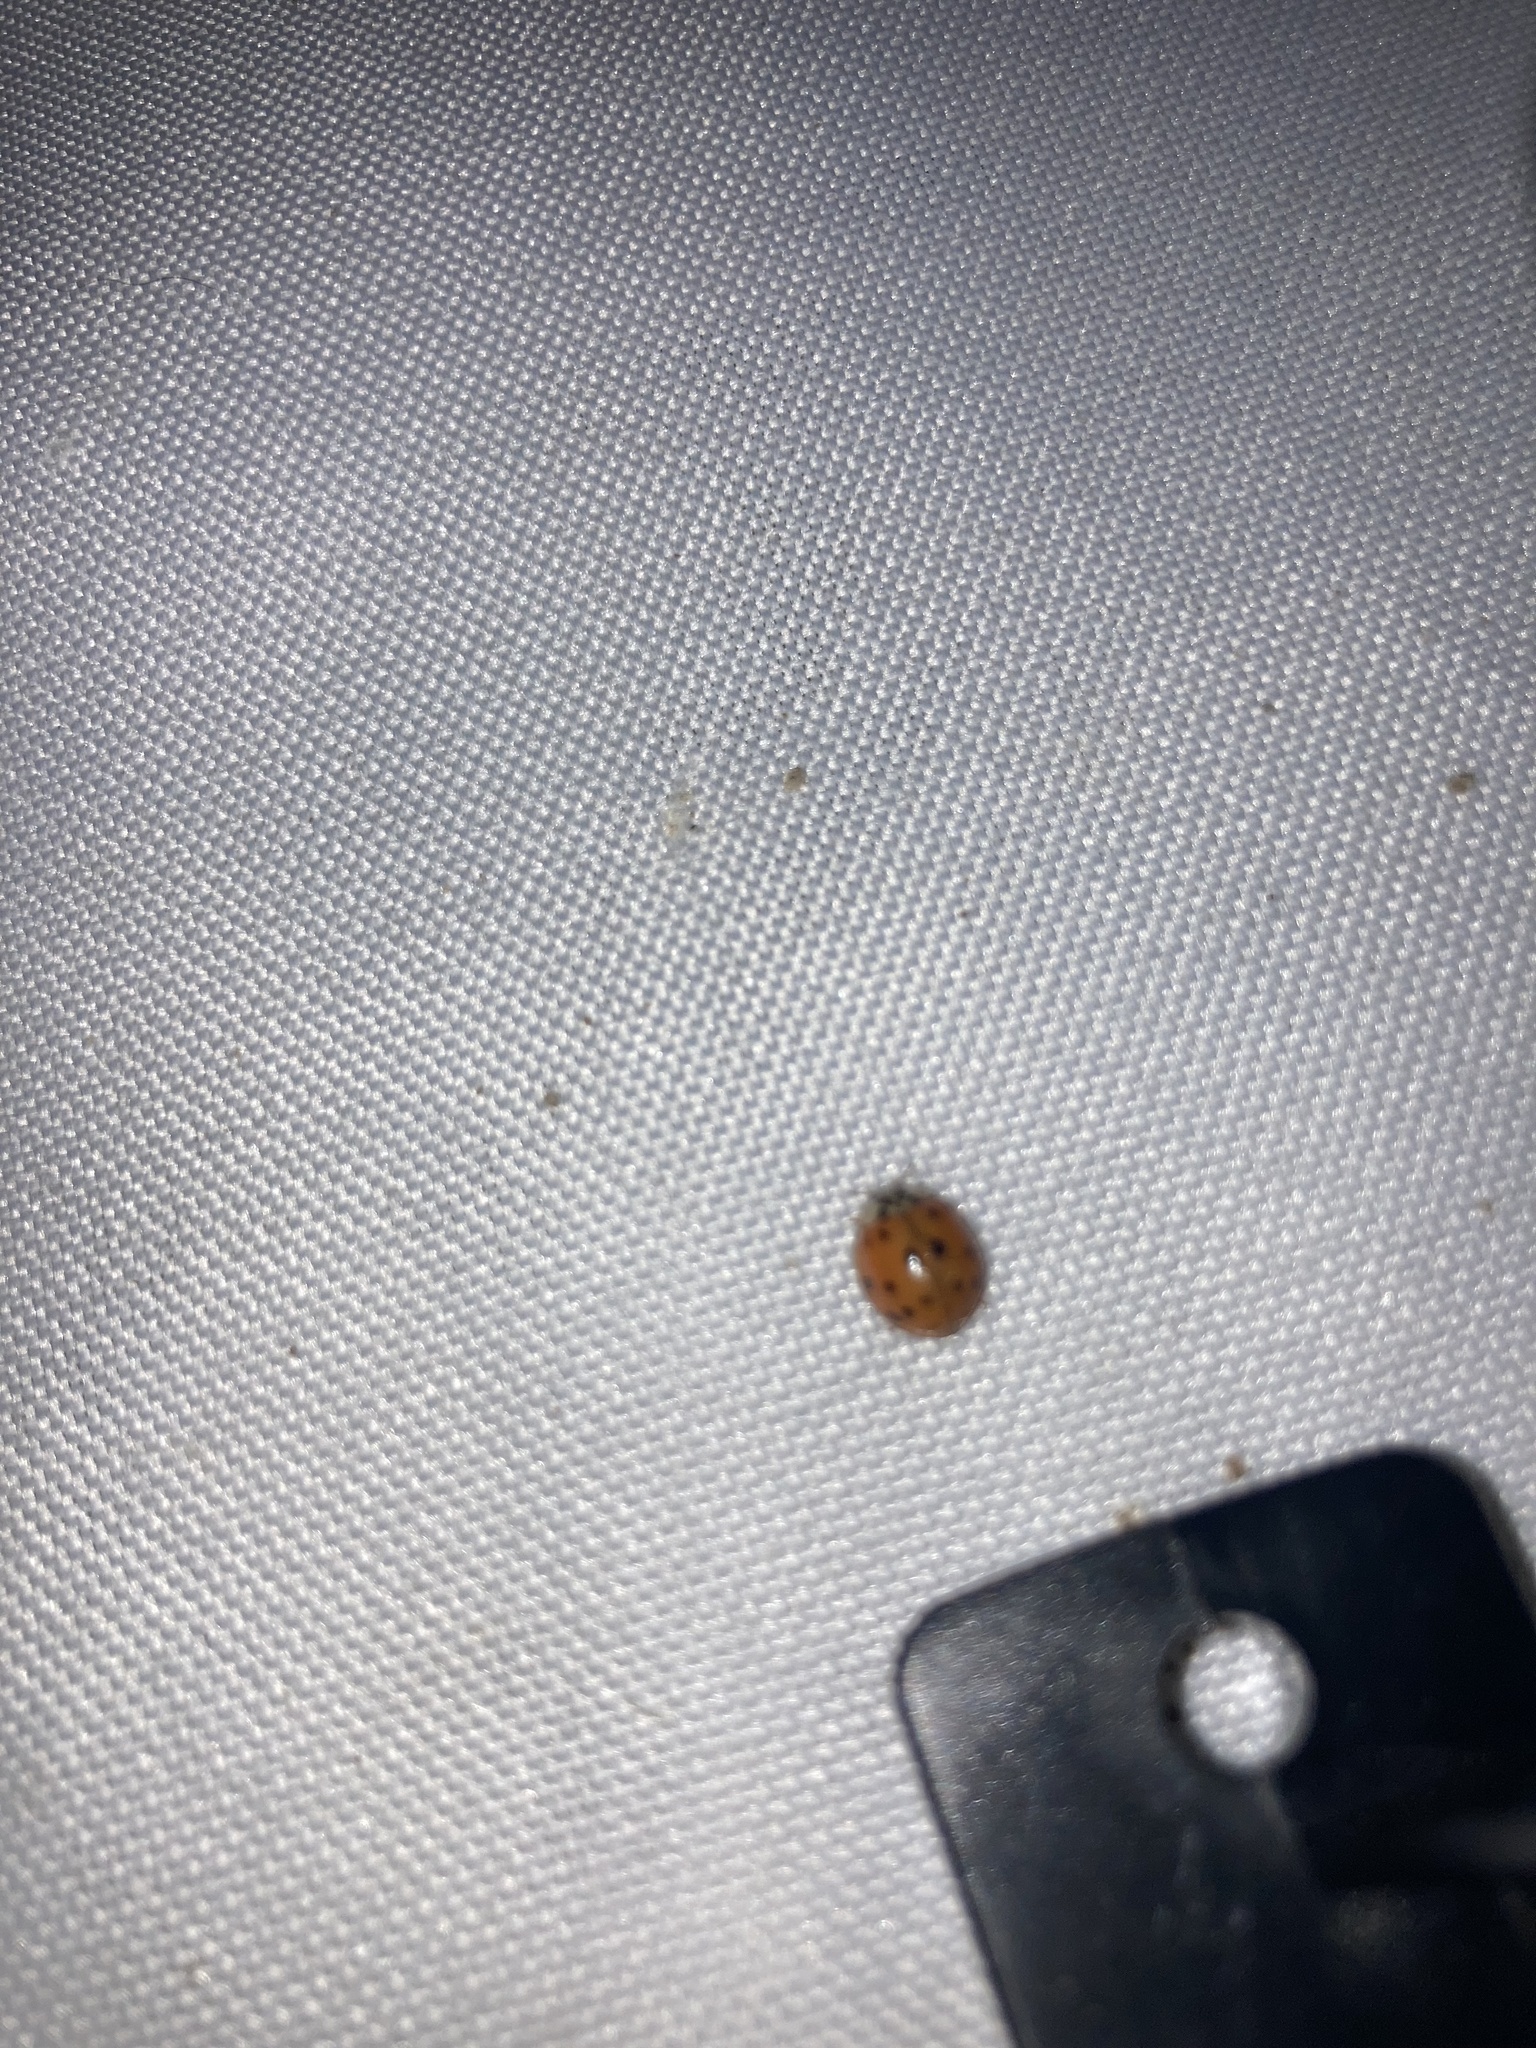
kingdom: Animalia
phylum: Arthropoda
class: Insecta
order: Coleoptera
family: Coccinellidae
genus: Harmonia
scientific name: Harmonia axyridis
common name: Harlequin ladybird
